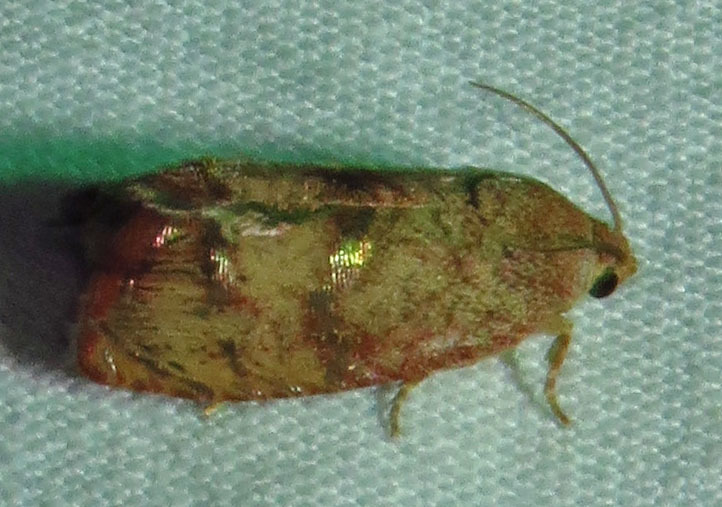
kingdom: Animalia
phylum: Arthropoda
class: Insecta
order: Lepidoptera
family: Tortricidae
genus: Cydia
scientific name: Cydia latiferreana
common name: Filbertworm moth
